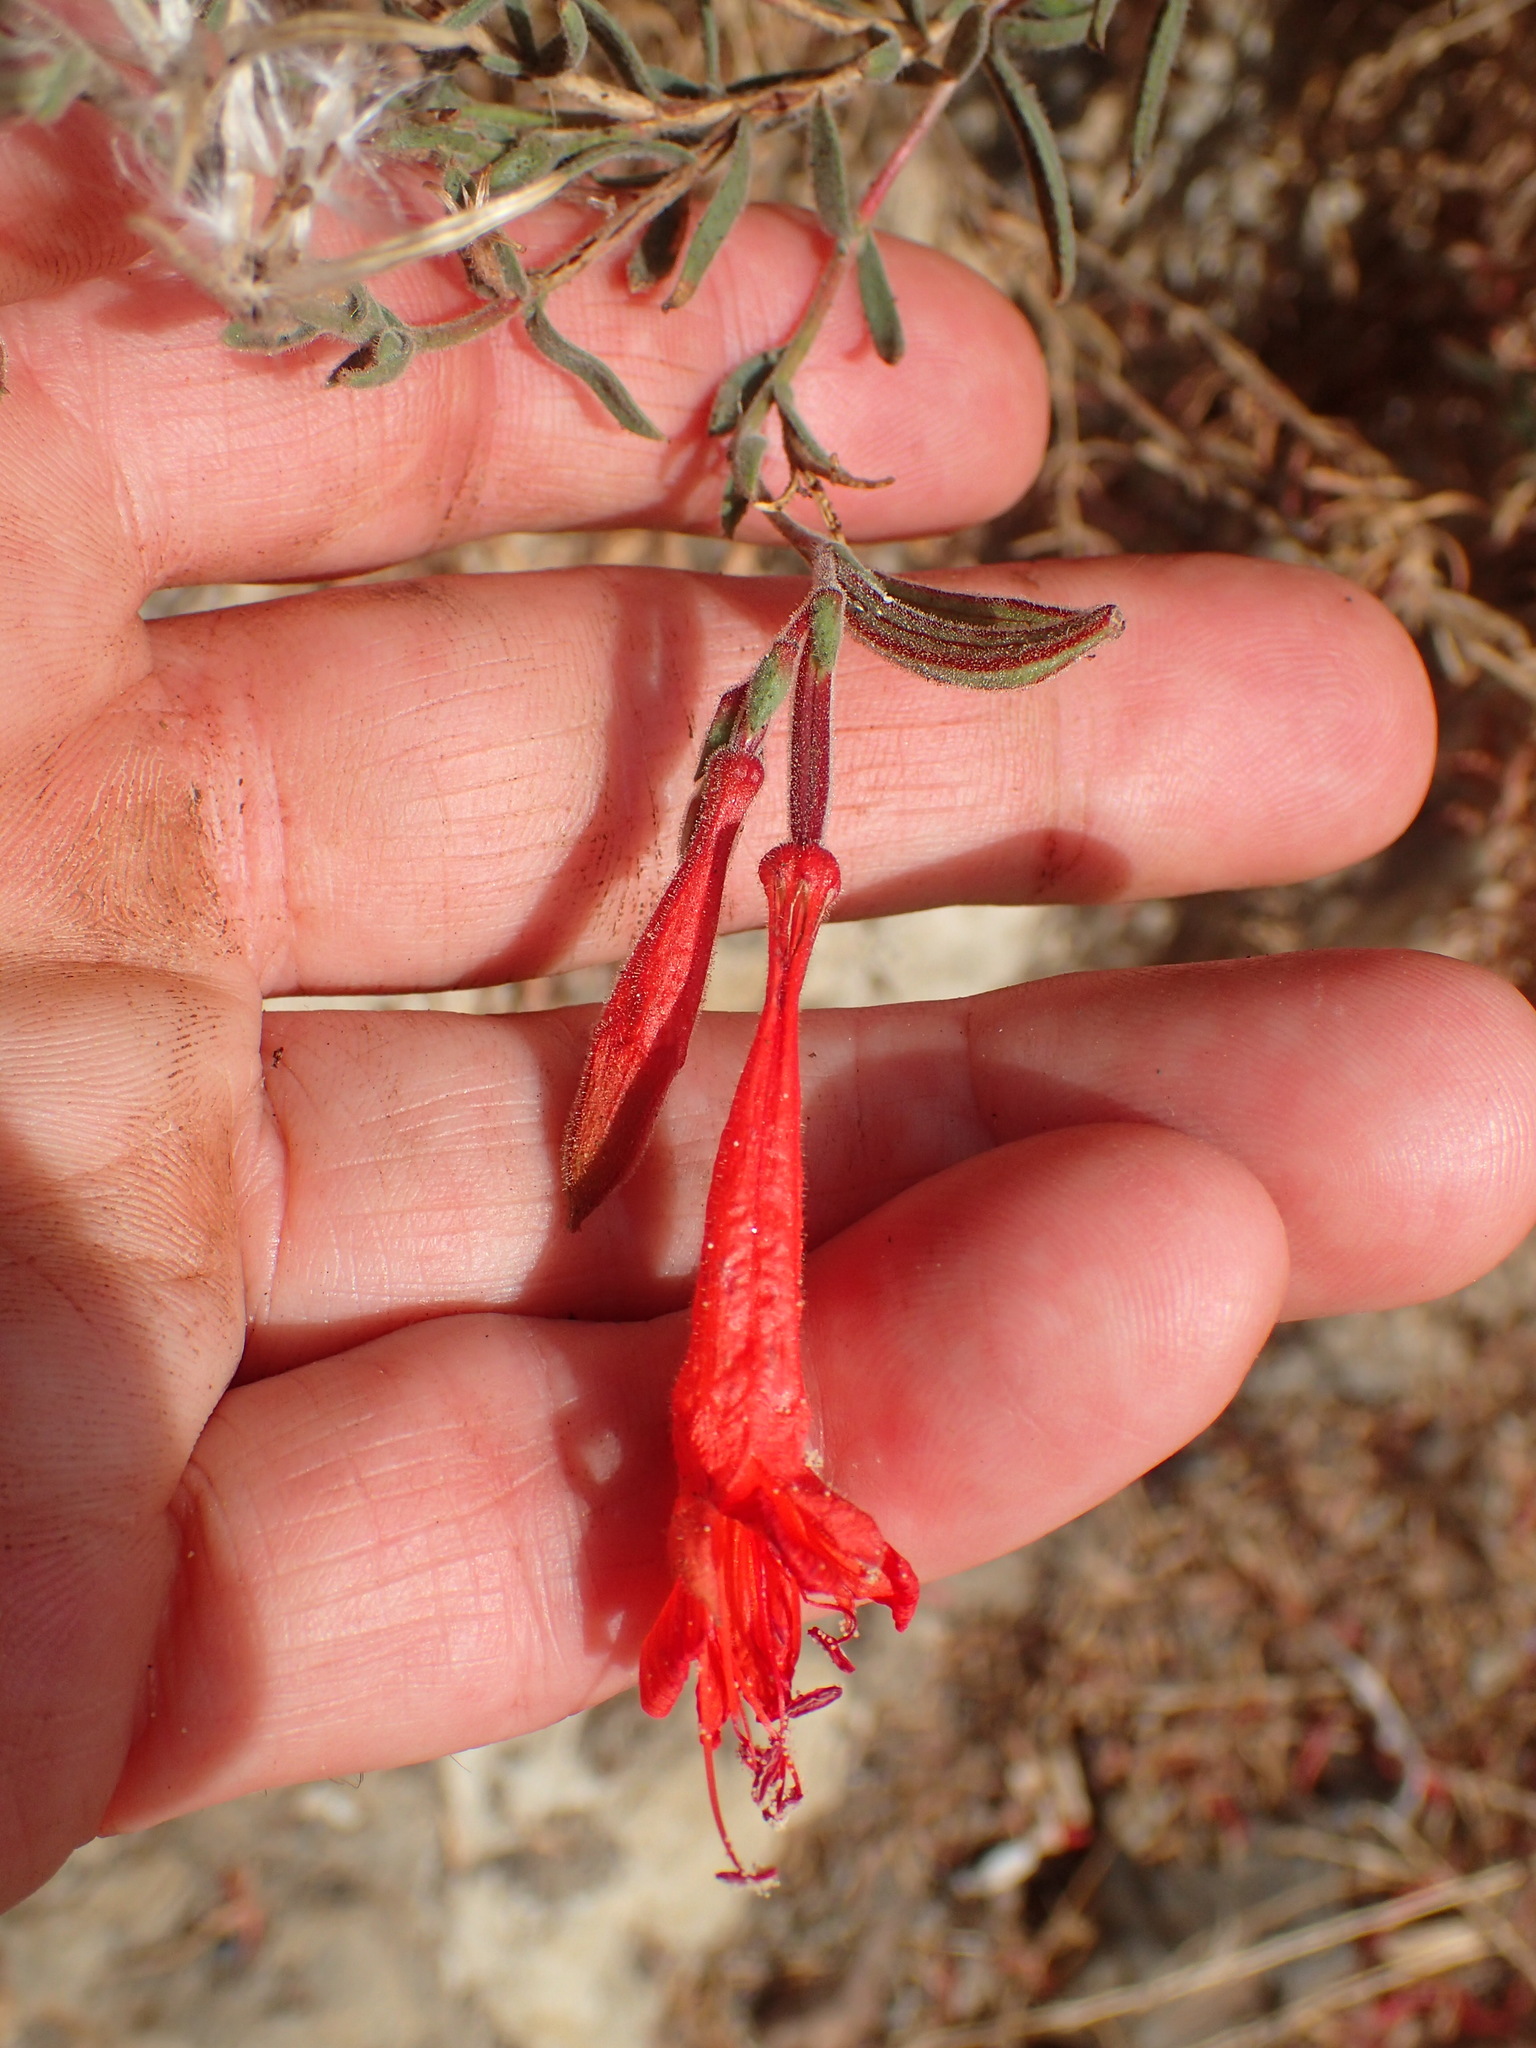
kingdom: Plantae
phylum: Tracheophyta
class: Magnoliopsida
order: Myrtales
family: Onagraceae
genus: Epilobium
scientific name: Epilobium canum
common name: California-fuchsia
